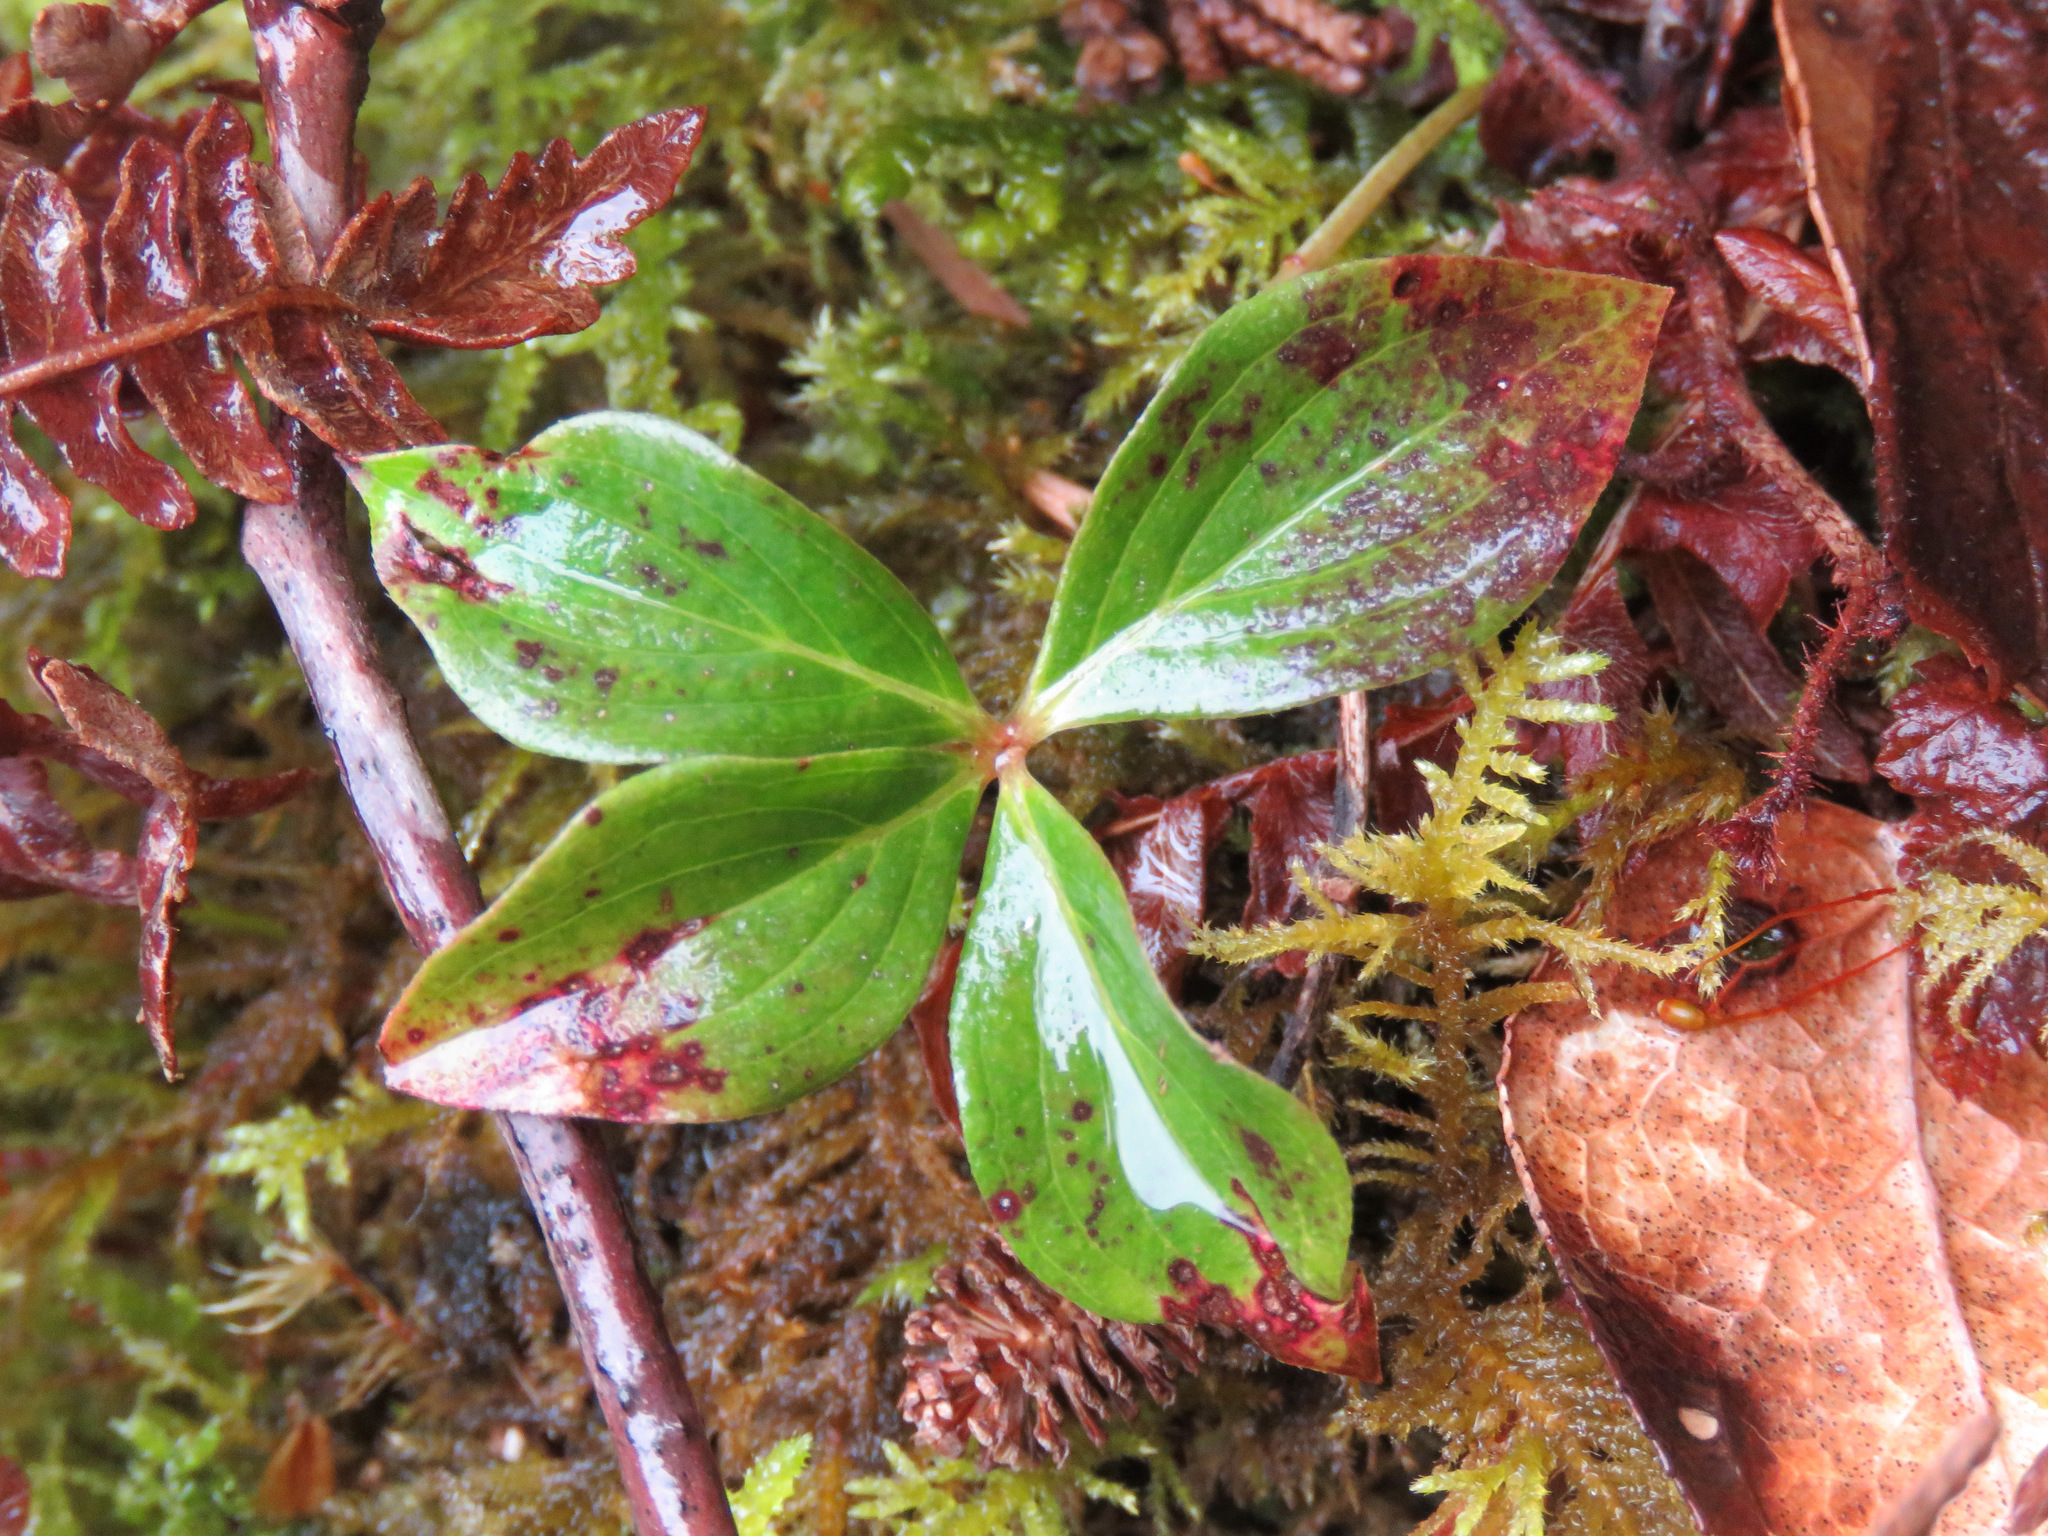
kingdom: Plantae
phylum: Tracheophyta
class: Magnoliopsida
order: Cornales
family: Cornaceae
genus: Cornus
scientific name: Cornus unalaschkensis
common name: Alaska bunchberry
